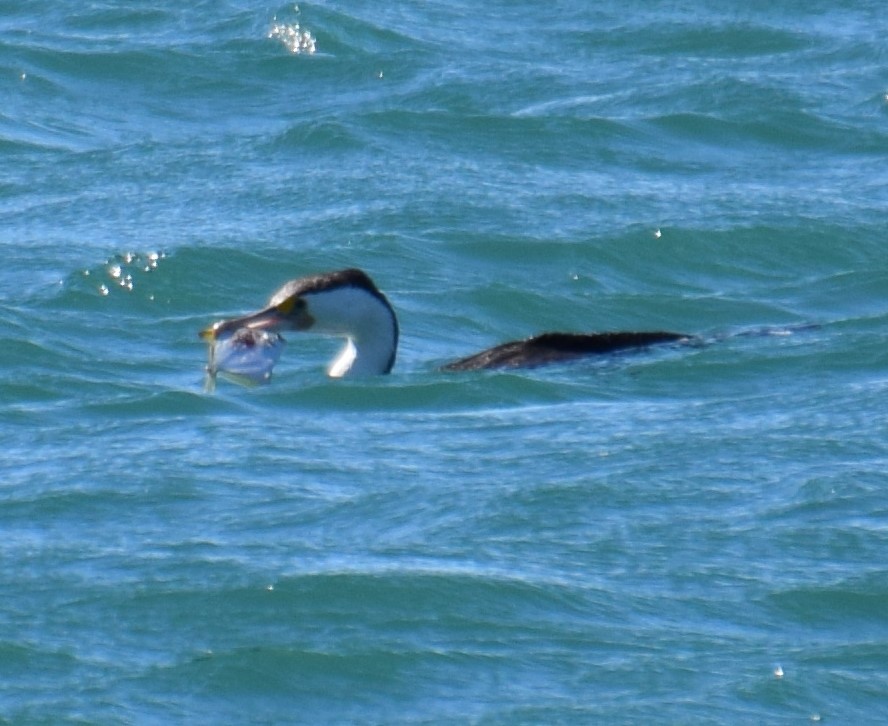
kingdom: Animalia
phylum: Chordata
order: Perciformes
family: Monodactylidae
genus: Monodactylus
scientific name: Monodactylus argenteus
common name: Silver moony
